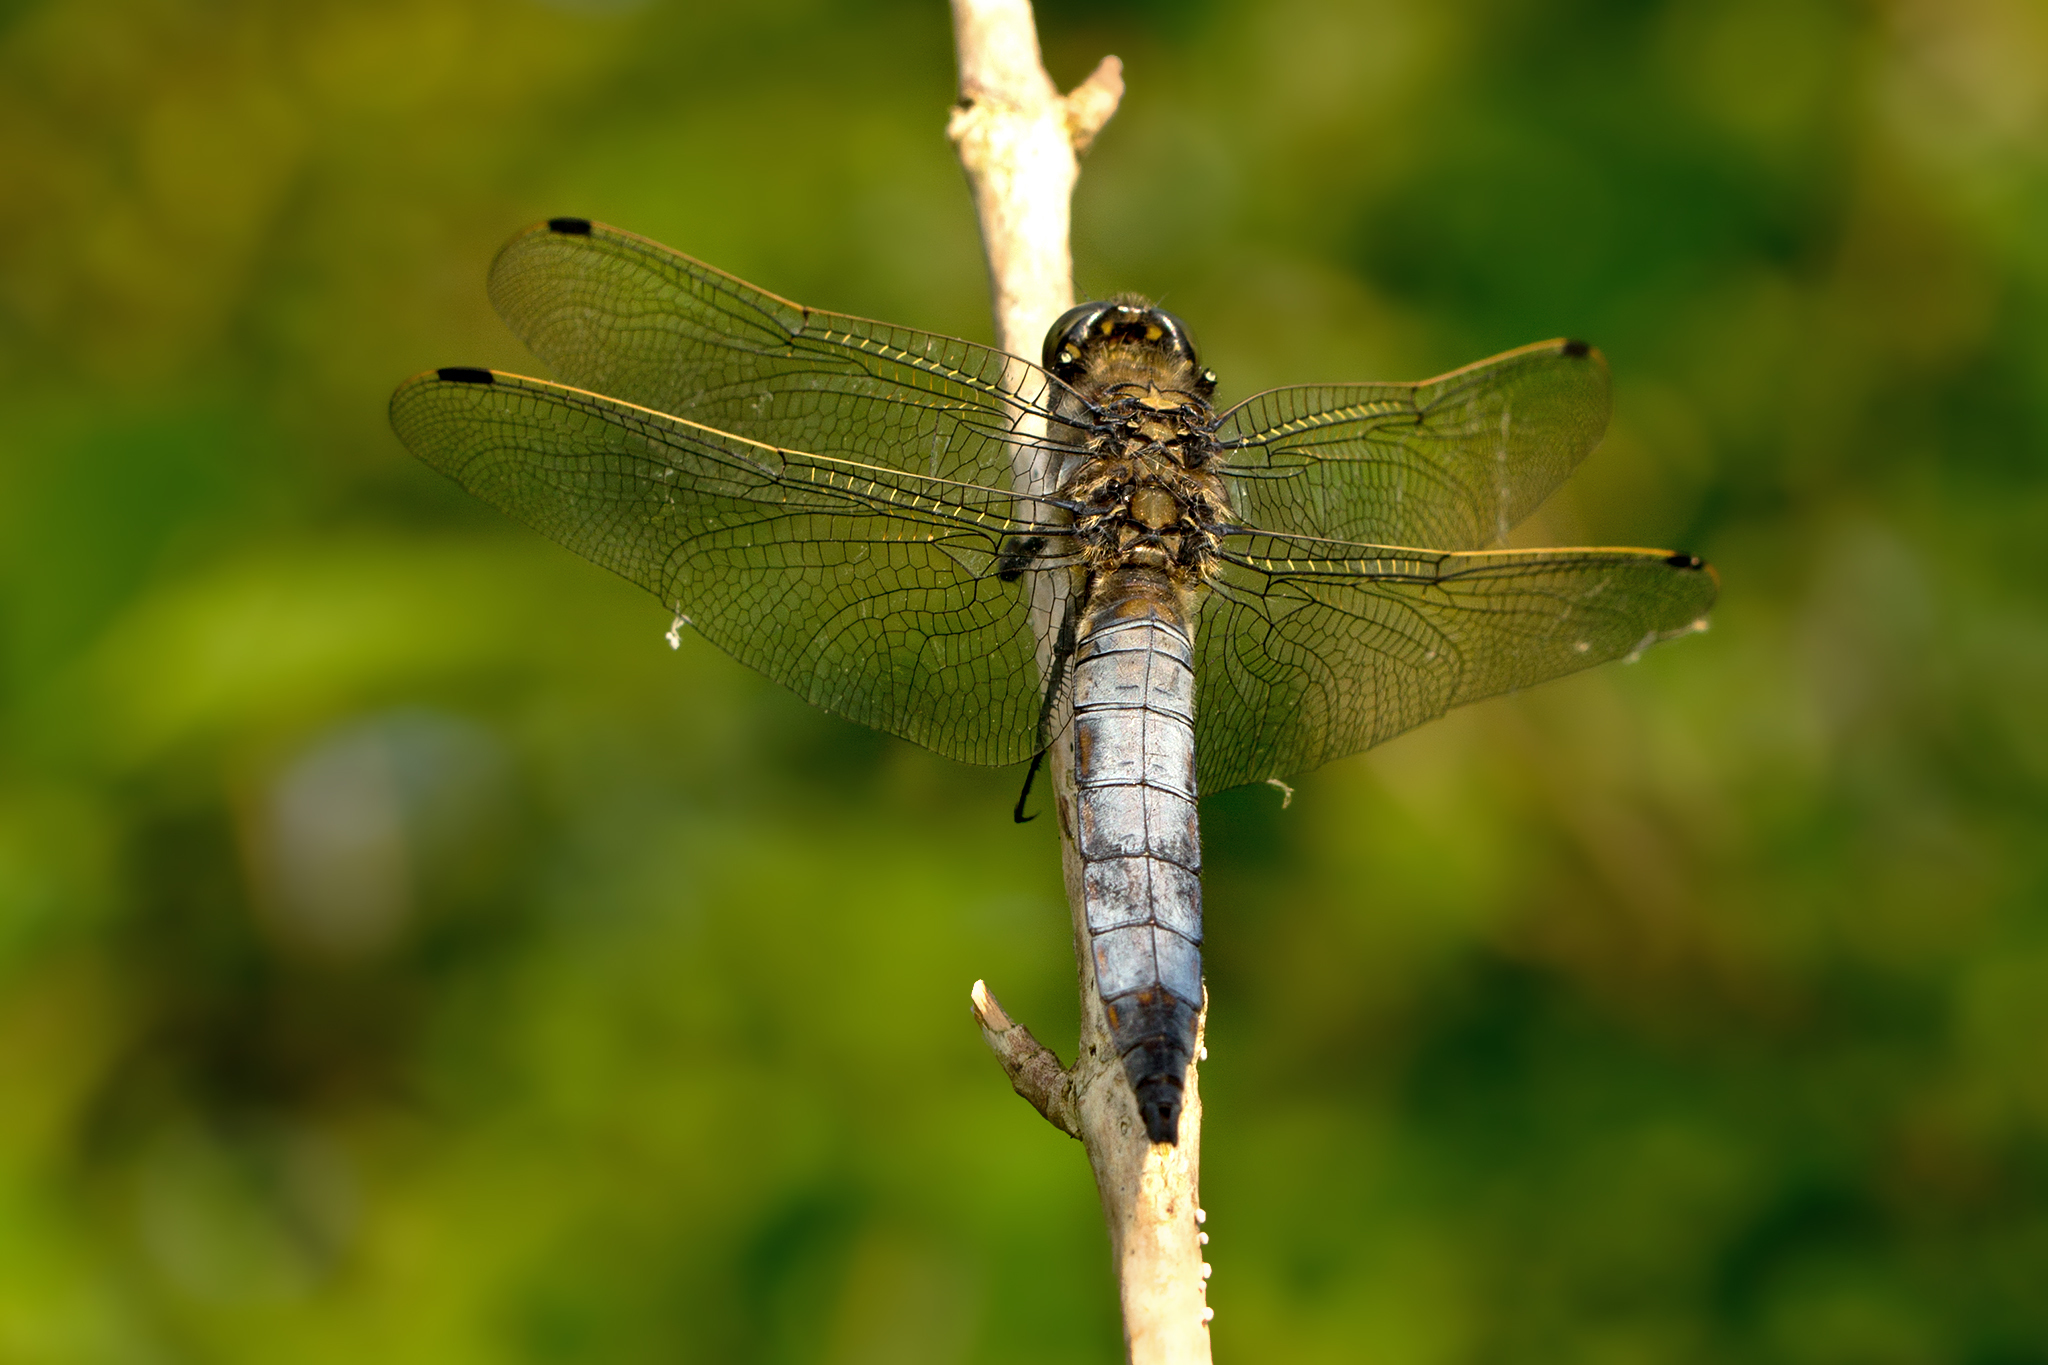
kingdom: Animalia
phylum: Arthropoda
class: Insecta
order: Odonata
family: Libellulidae
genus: Orthetrum
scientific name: Orthetrum cancellatum
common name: Black-tailed skimmer
